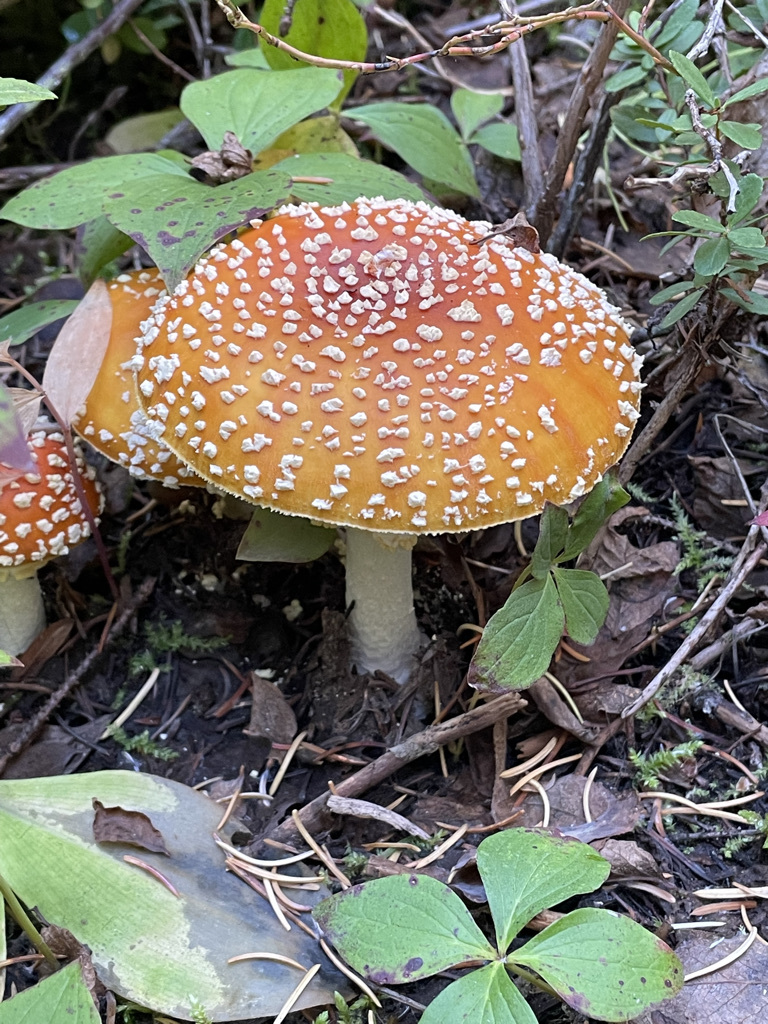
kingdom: Fungi
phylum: Basidiomycota
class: Agaricomycetes
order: Agaricales
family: Amanitaceae
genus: Amanita
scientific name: Amanita muscaria
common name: Fly agaric
